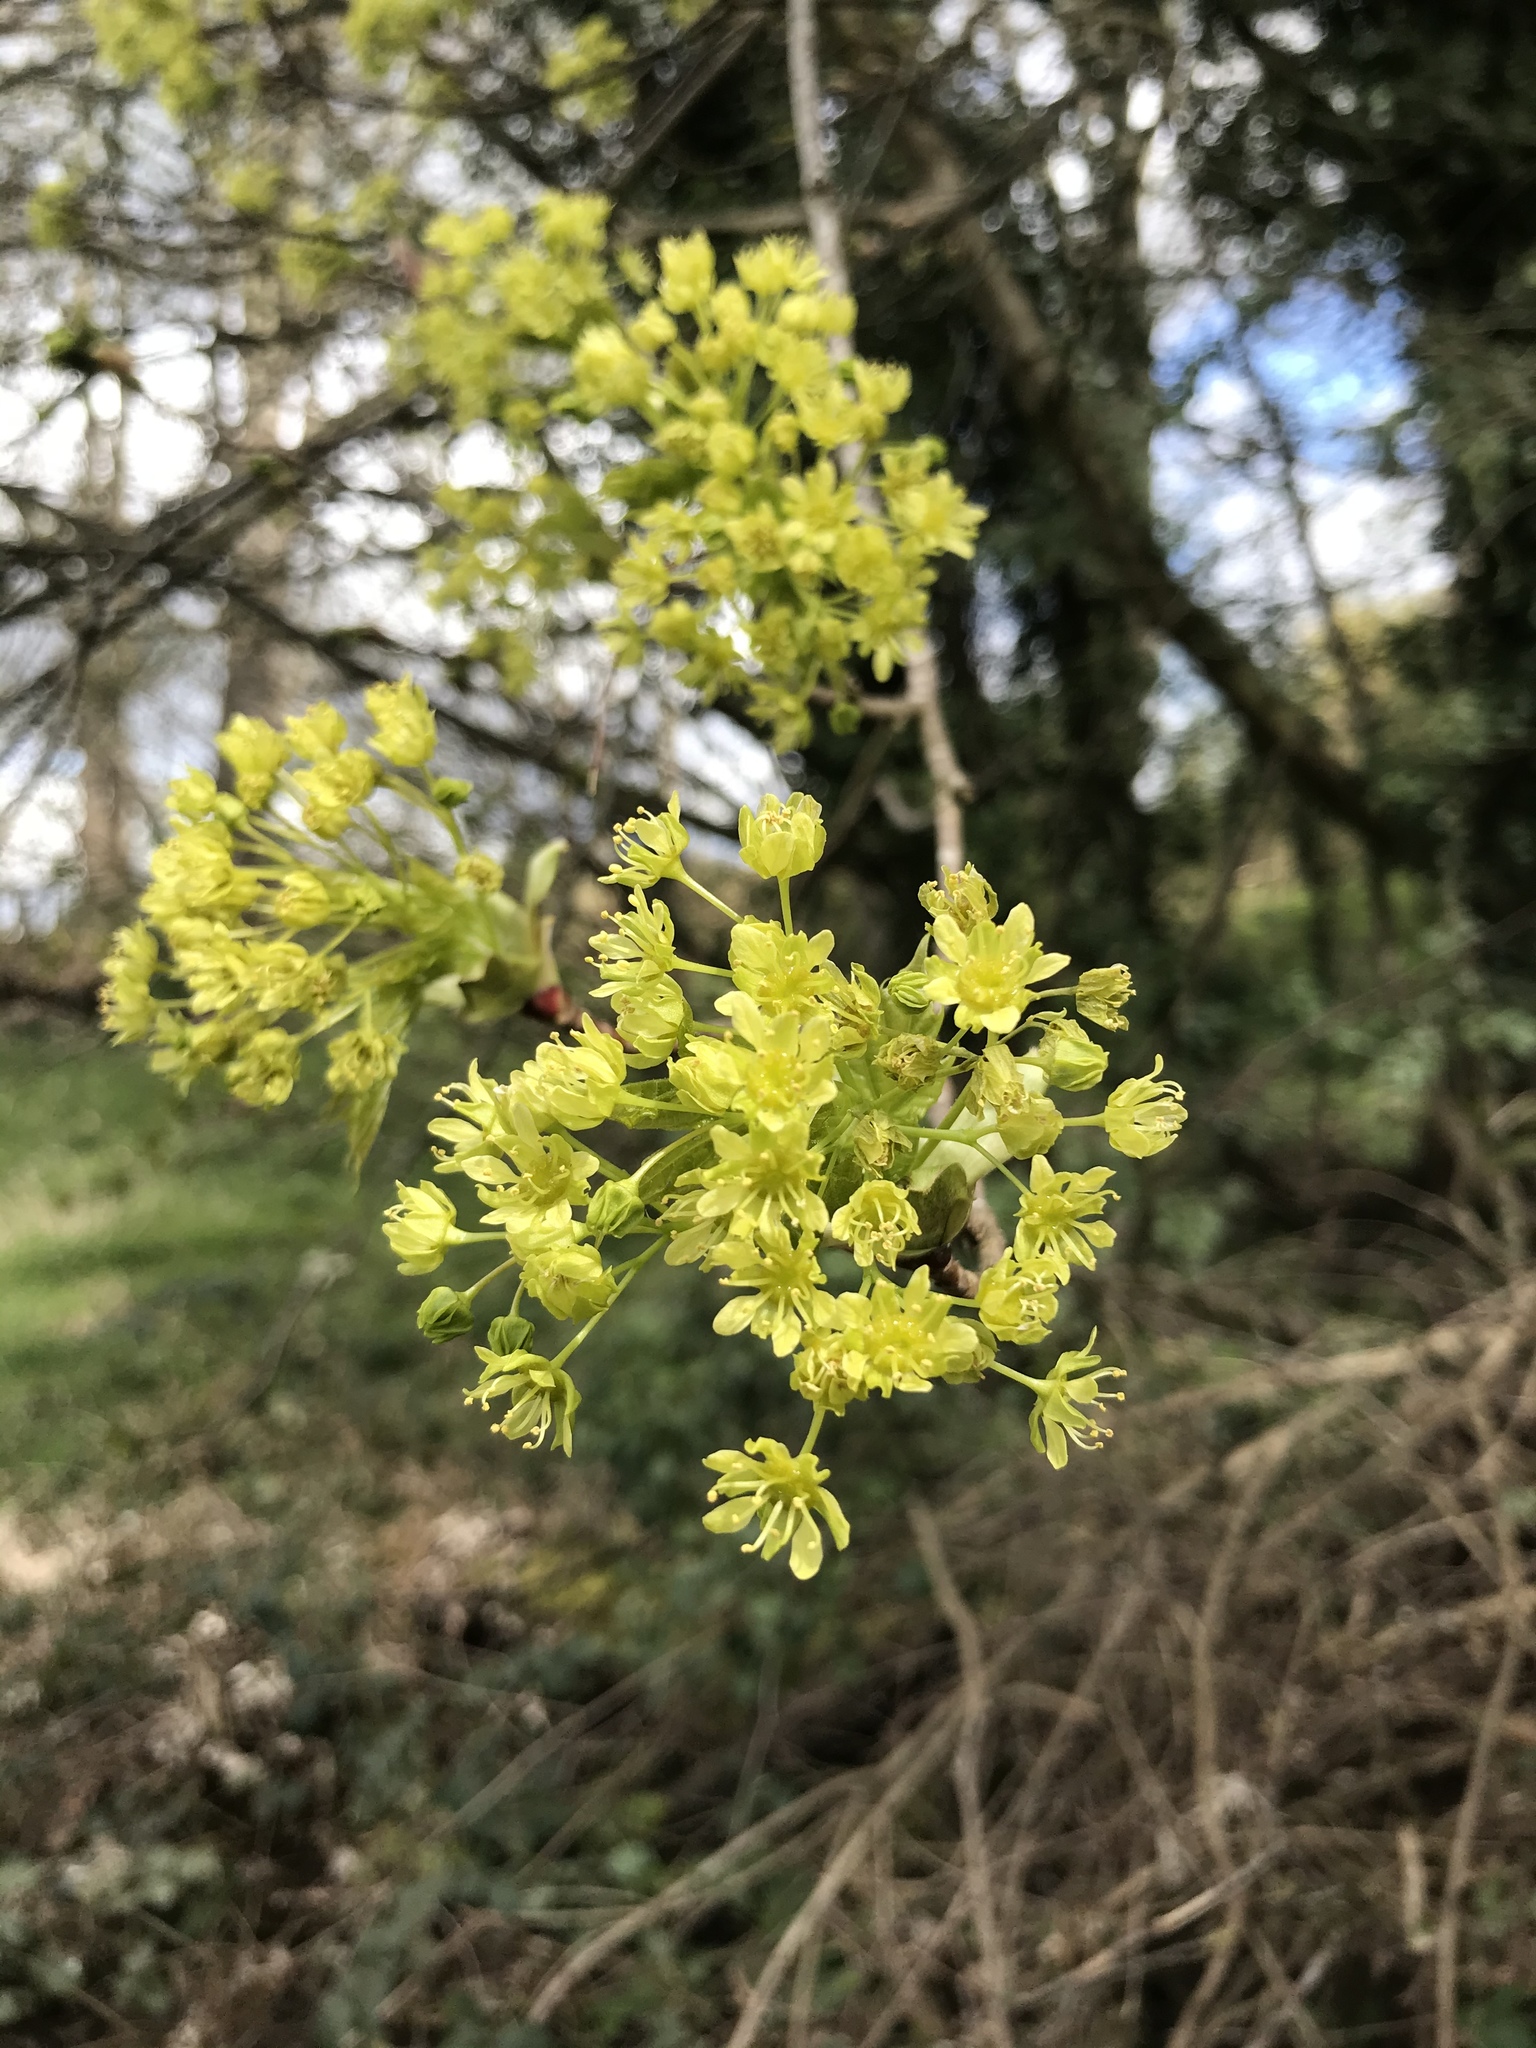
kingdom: Plantae
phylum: Tracheophyta
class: Magnoliopsida
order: Sapindales
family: Sapindaceae
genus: Acer
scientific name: Acer platanoides
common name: Norway maple
